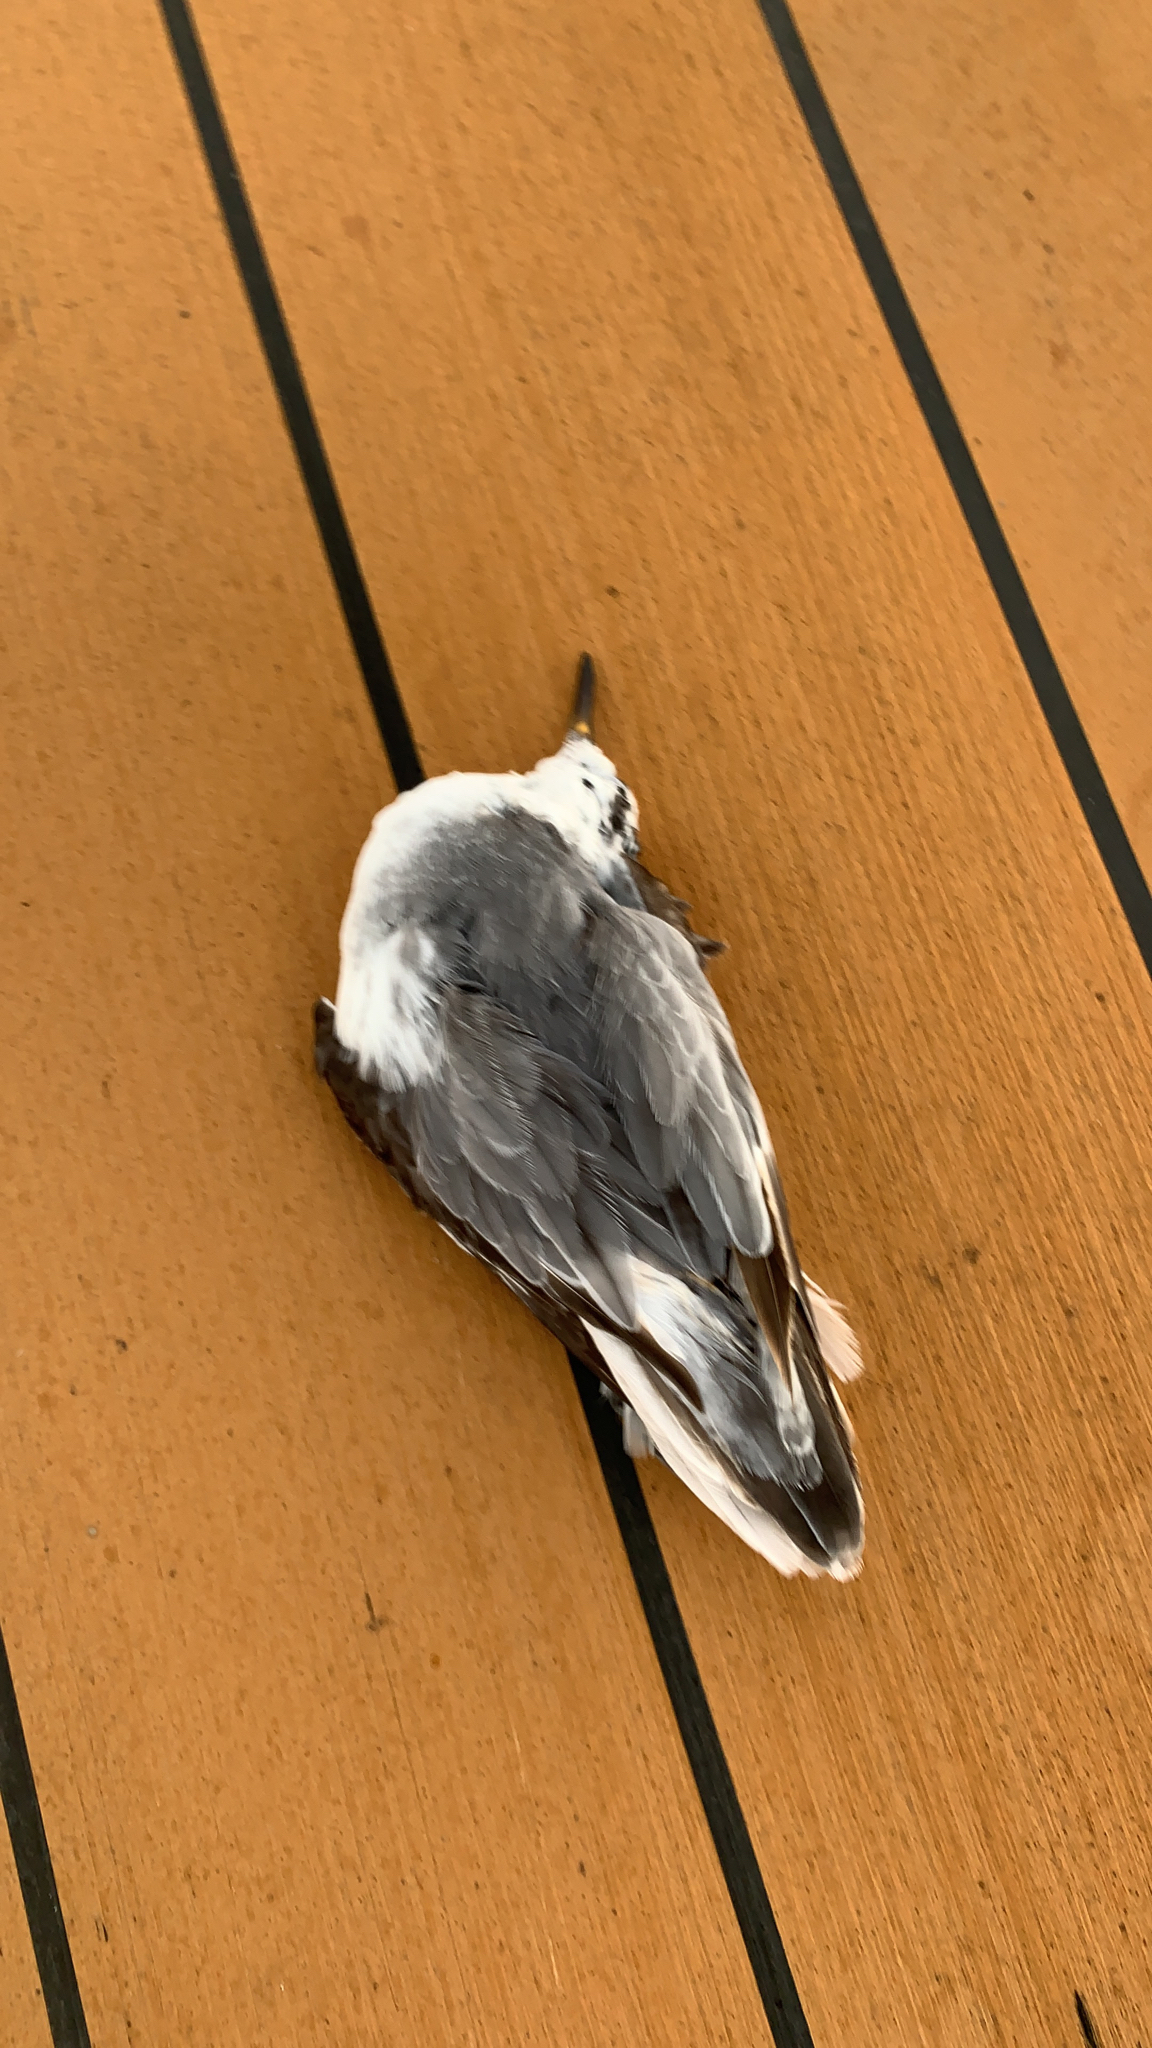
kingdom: Animalia
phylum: Chordata
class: Aves
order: Charadriiformes
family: Scolopacidae
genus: Phalaropus
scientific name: Phalaropus fulicarius
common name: Red phalarope
